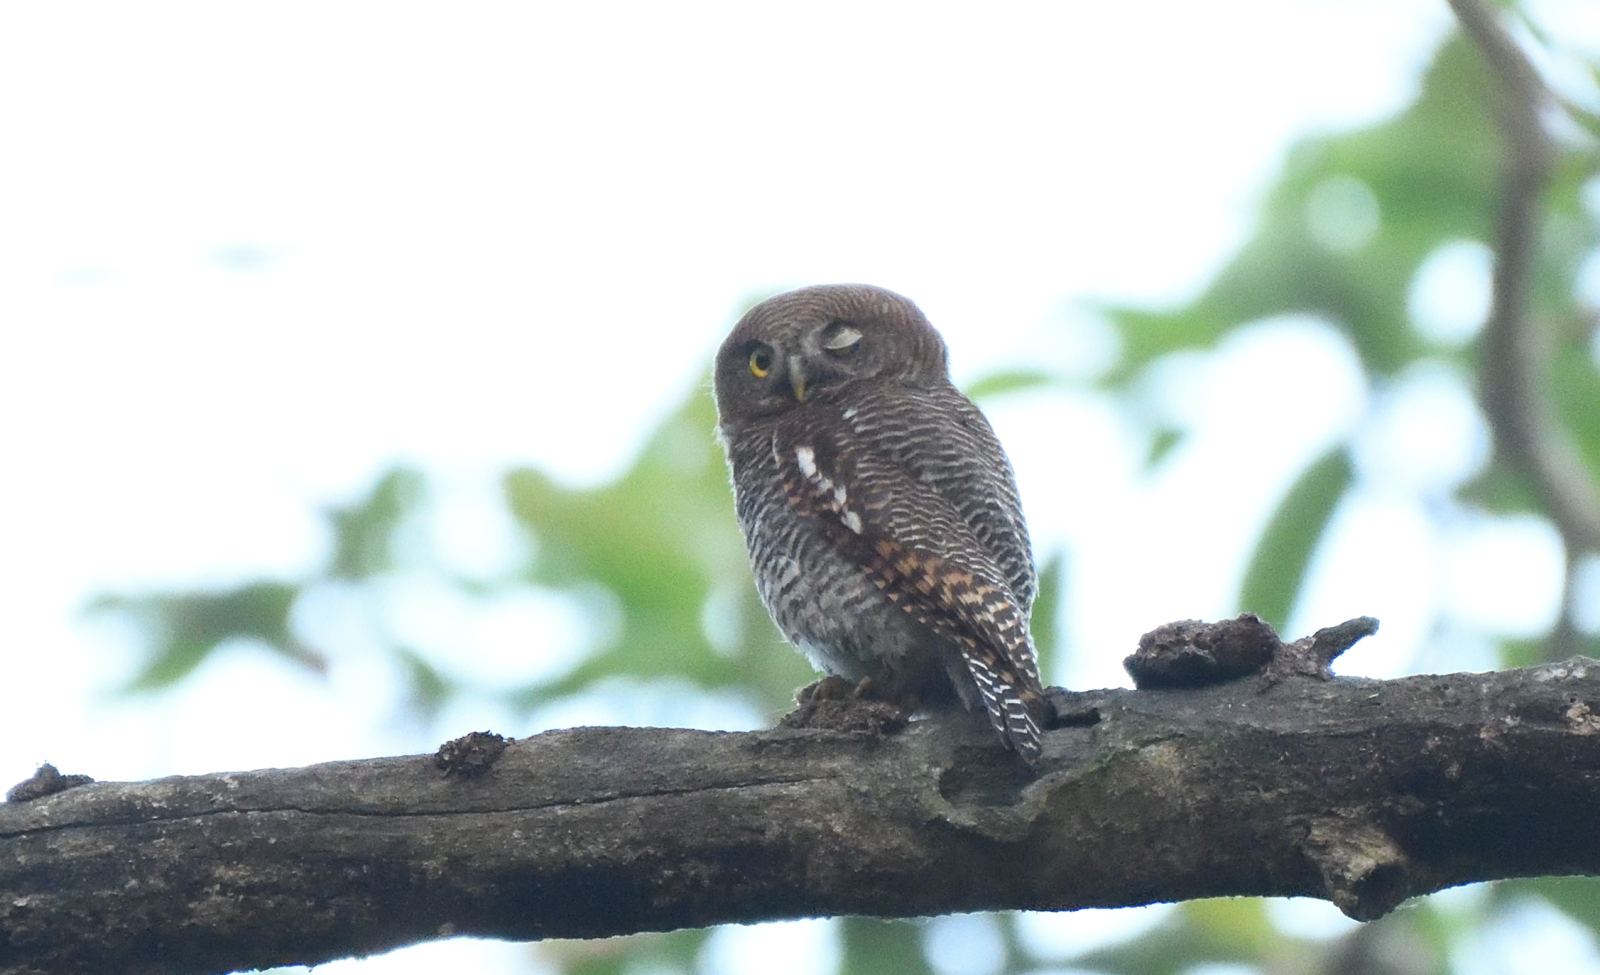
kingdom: Animalia
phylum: Chordata
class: Aves
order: Strigiformes
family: Strigidae
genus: Glaucidium
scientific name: Glaucidium radiatum
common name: Jungle owlet
